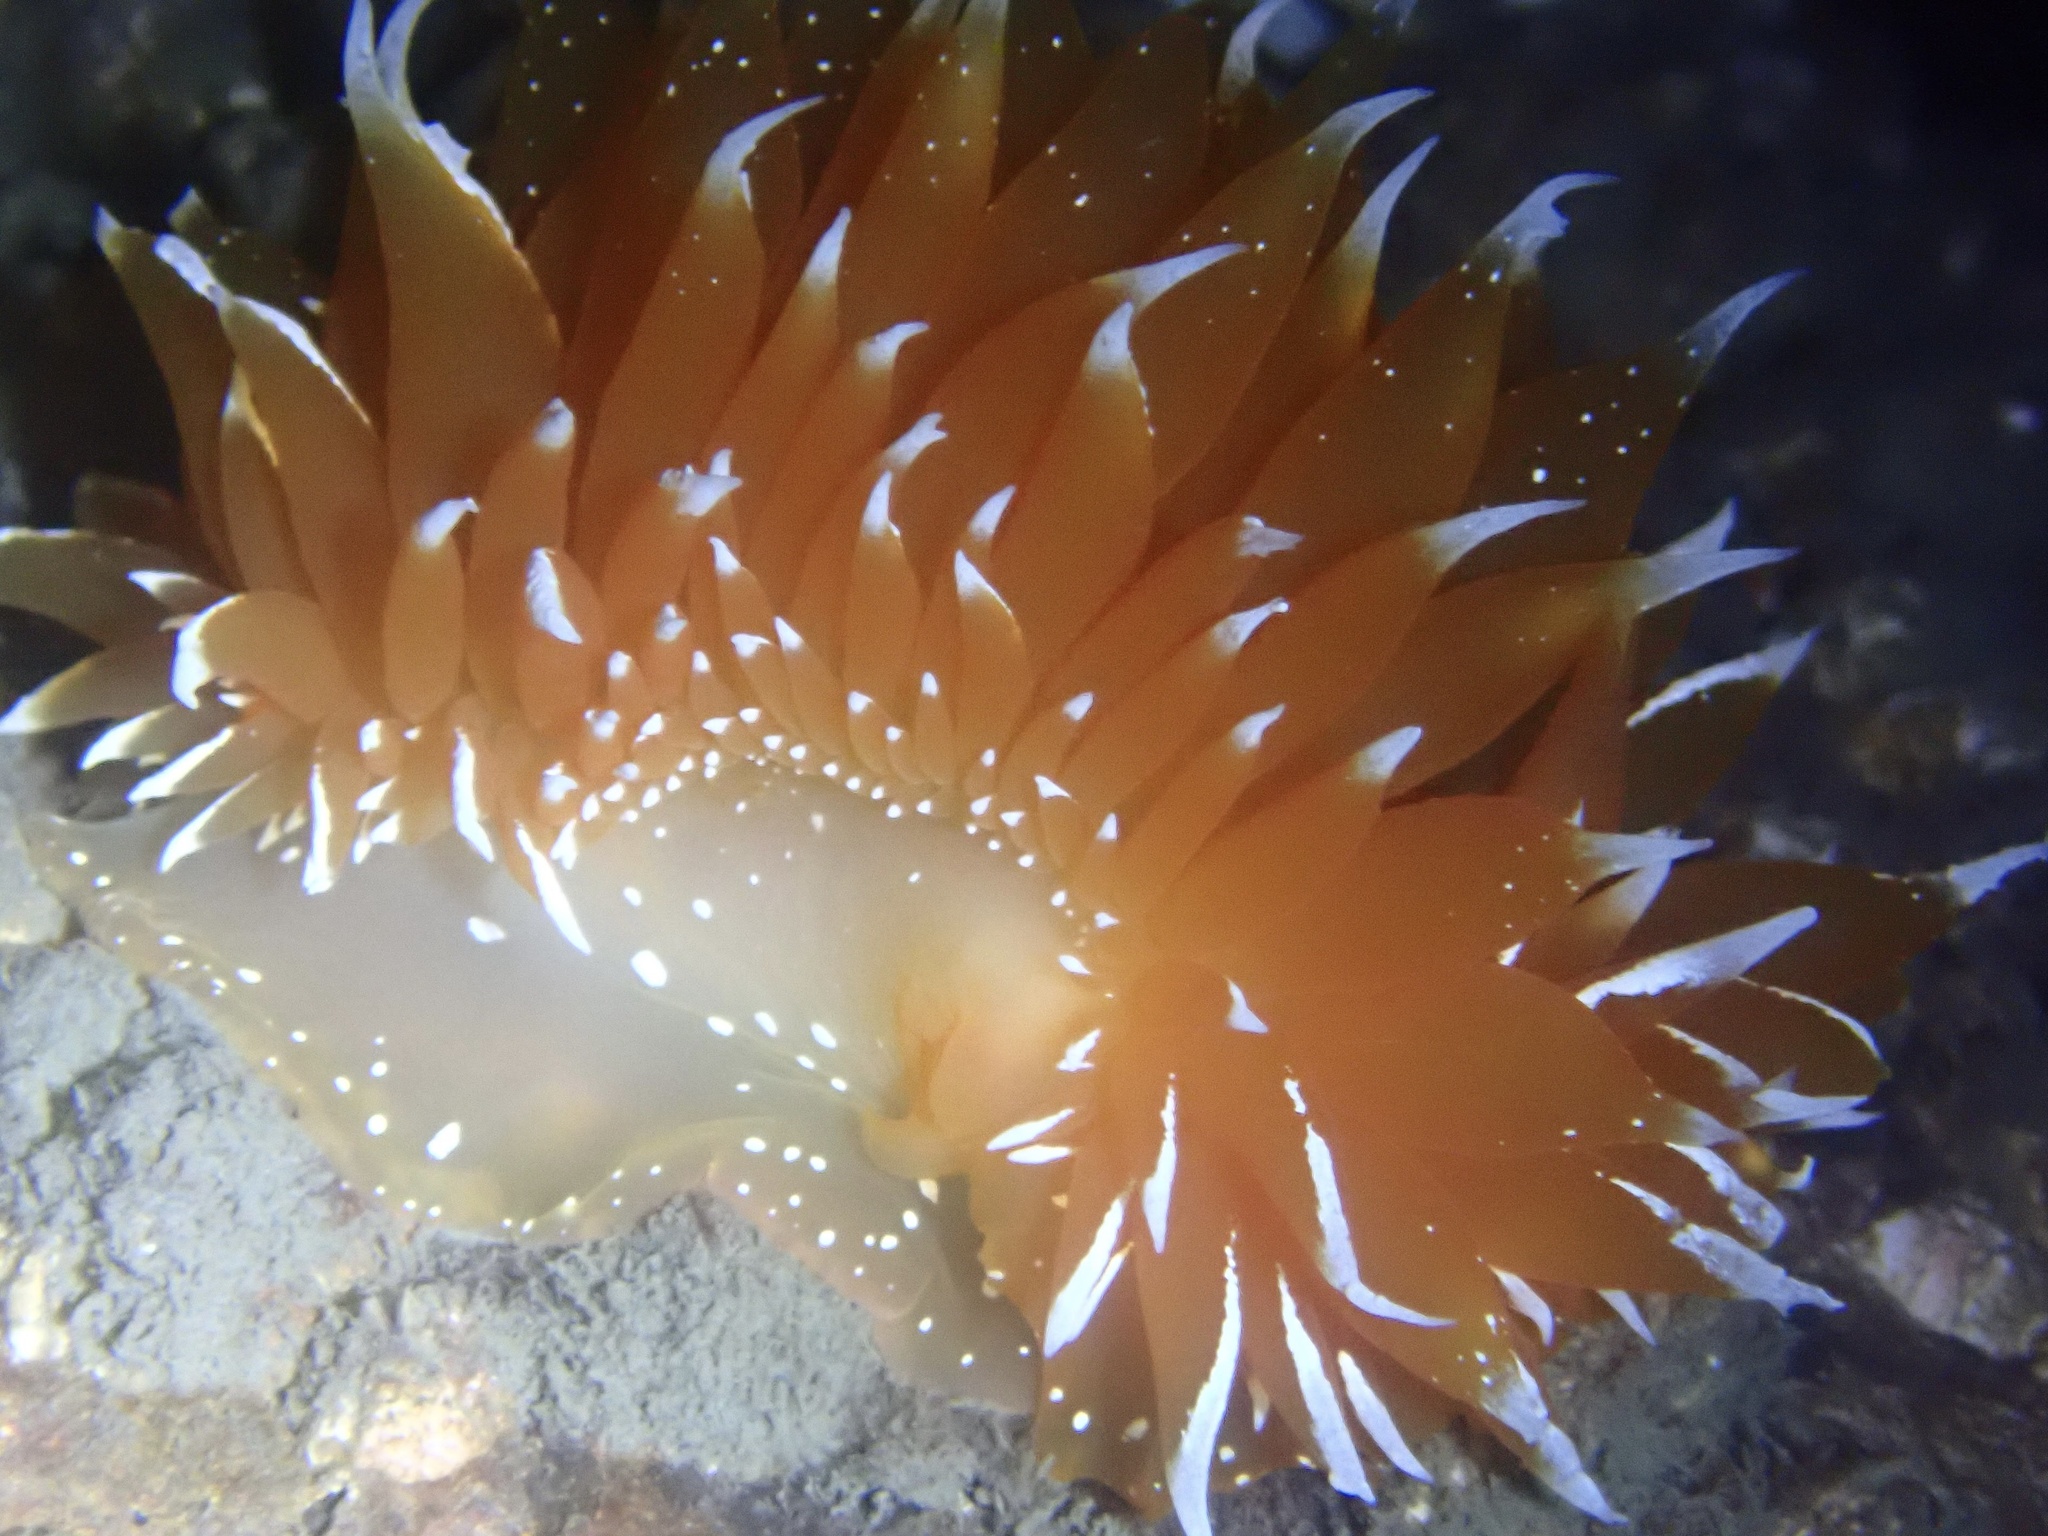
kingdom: Animalia
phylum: Mollusca
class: Gastropoda
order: Nudibranchia
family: Dironidae
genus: Dirona
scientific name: Dirona pellucida
